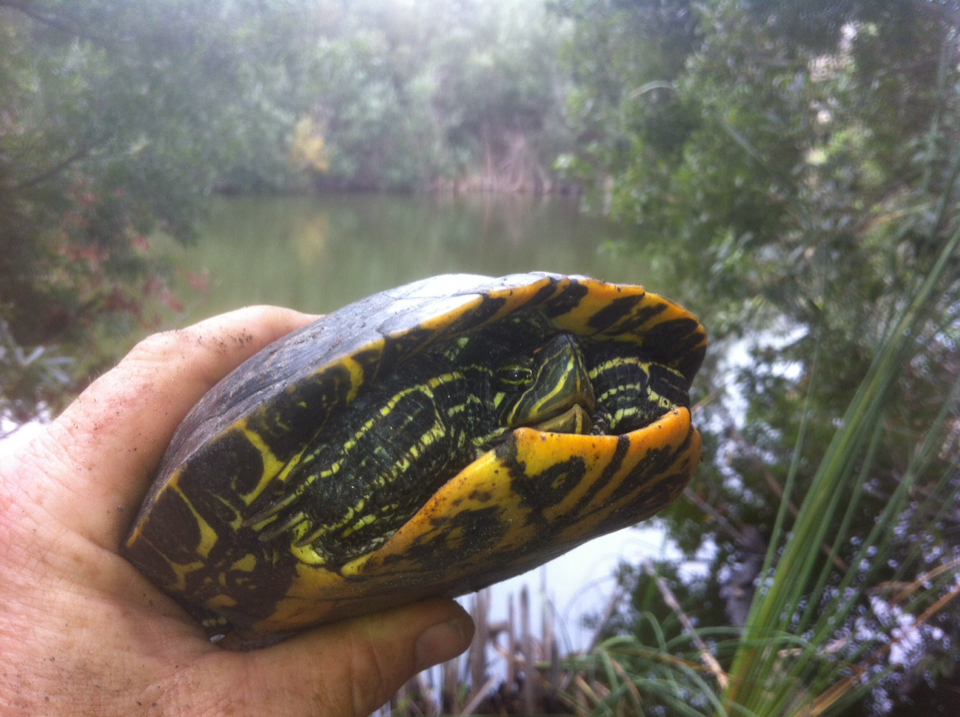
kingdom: Animalia
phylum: Chordata
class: Testudines
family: Emydidae
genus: Trachemys
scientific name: Trachemys scripta
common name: Slider
